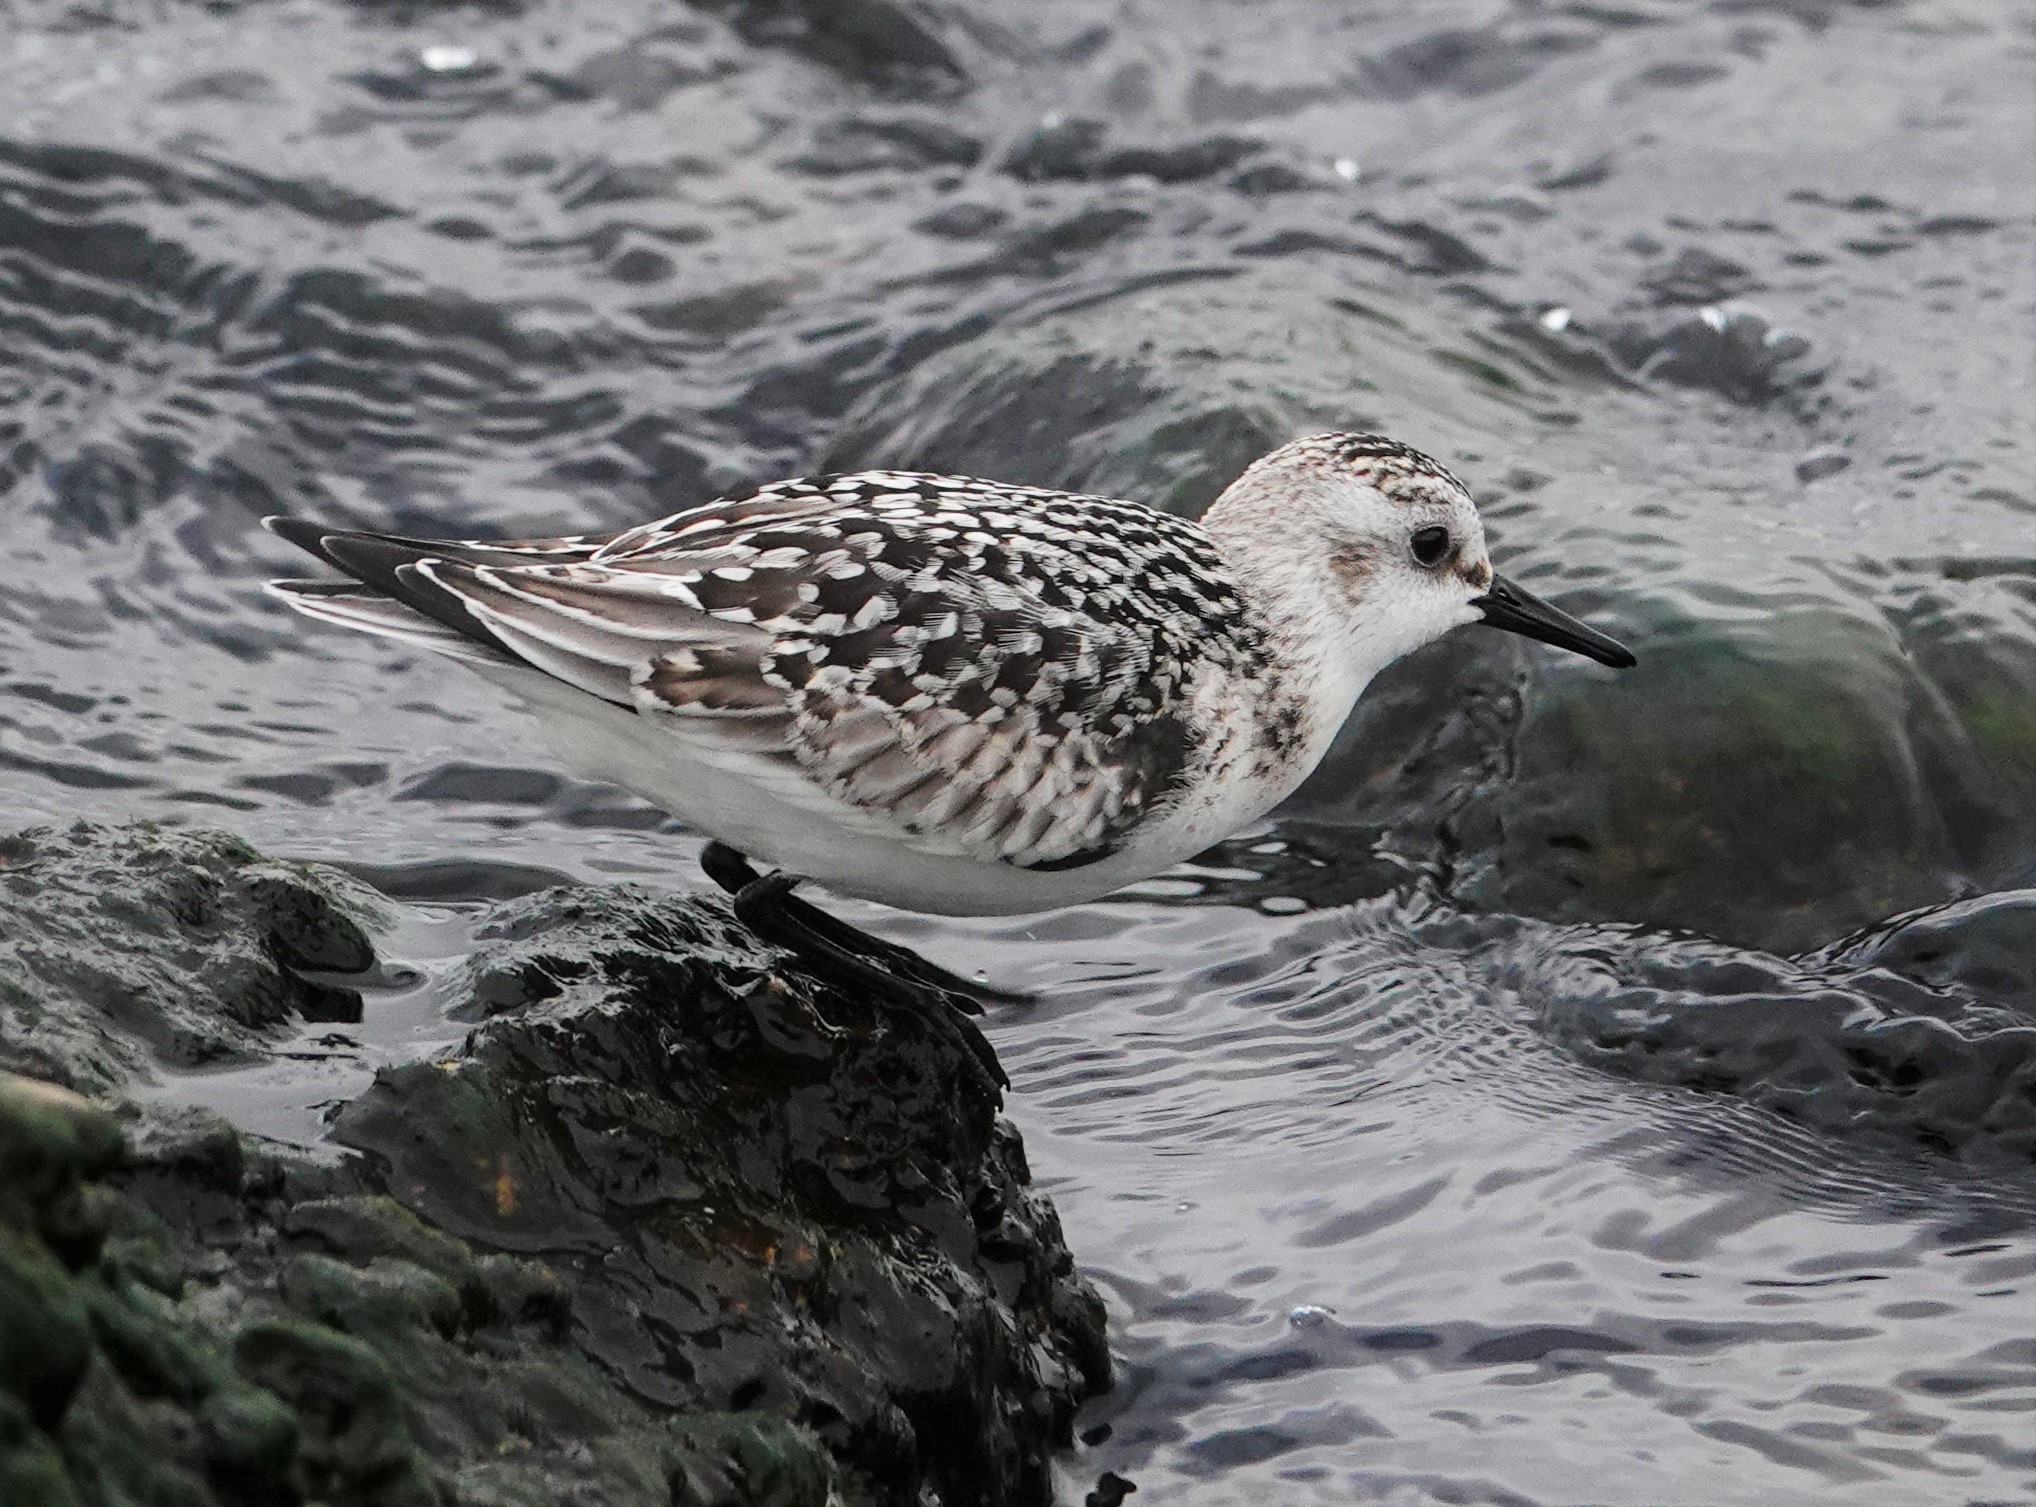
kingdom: Animalia
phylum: Chordata
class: Aves
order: Charadriiformes
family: Scolopacidae
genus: Calidris
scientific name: Calidris alba
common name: Sanderling
